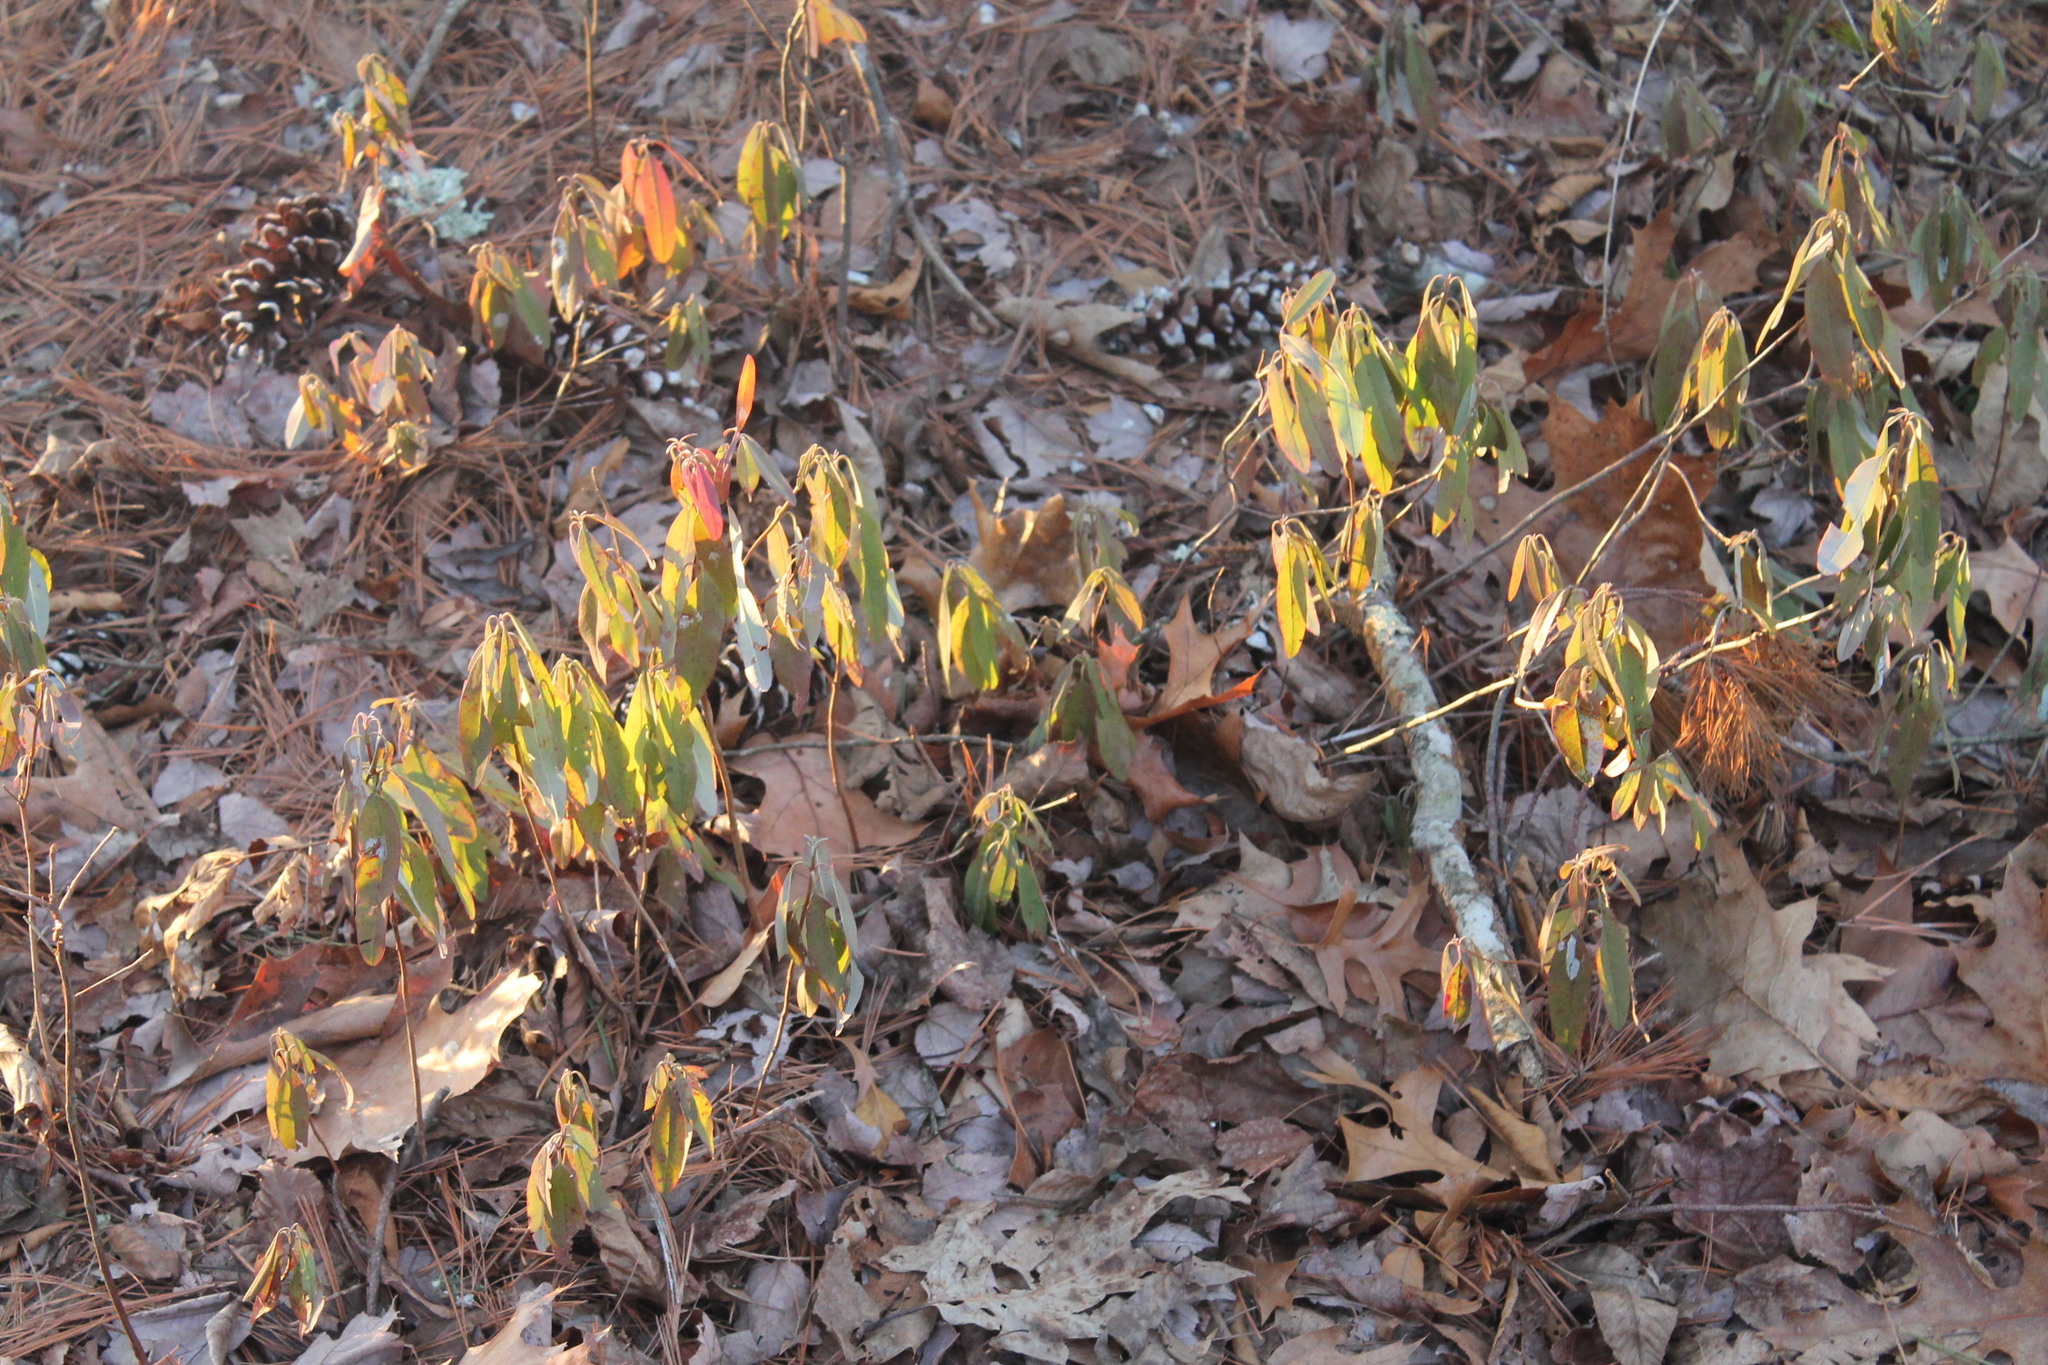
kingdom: Plantae
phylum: Tracheophyta
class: Magnoliopsida
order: Ericales
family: Ericaceae
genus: Kalmia
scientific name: Kalmia angustifolia
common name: Sheep-laurel
